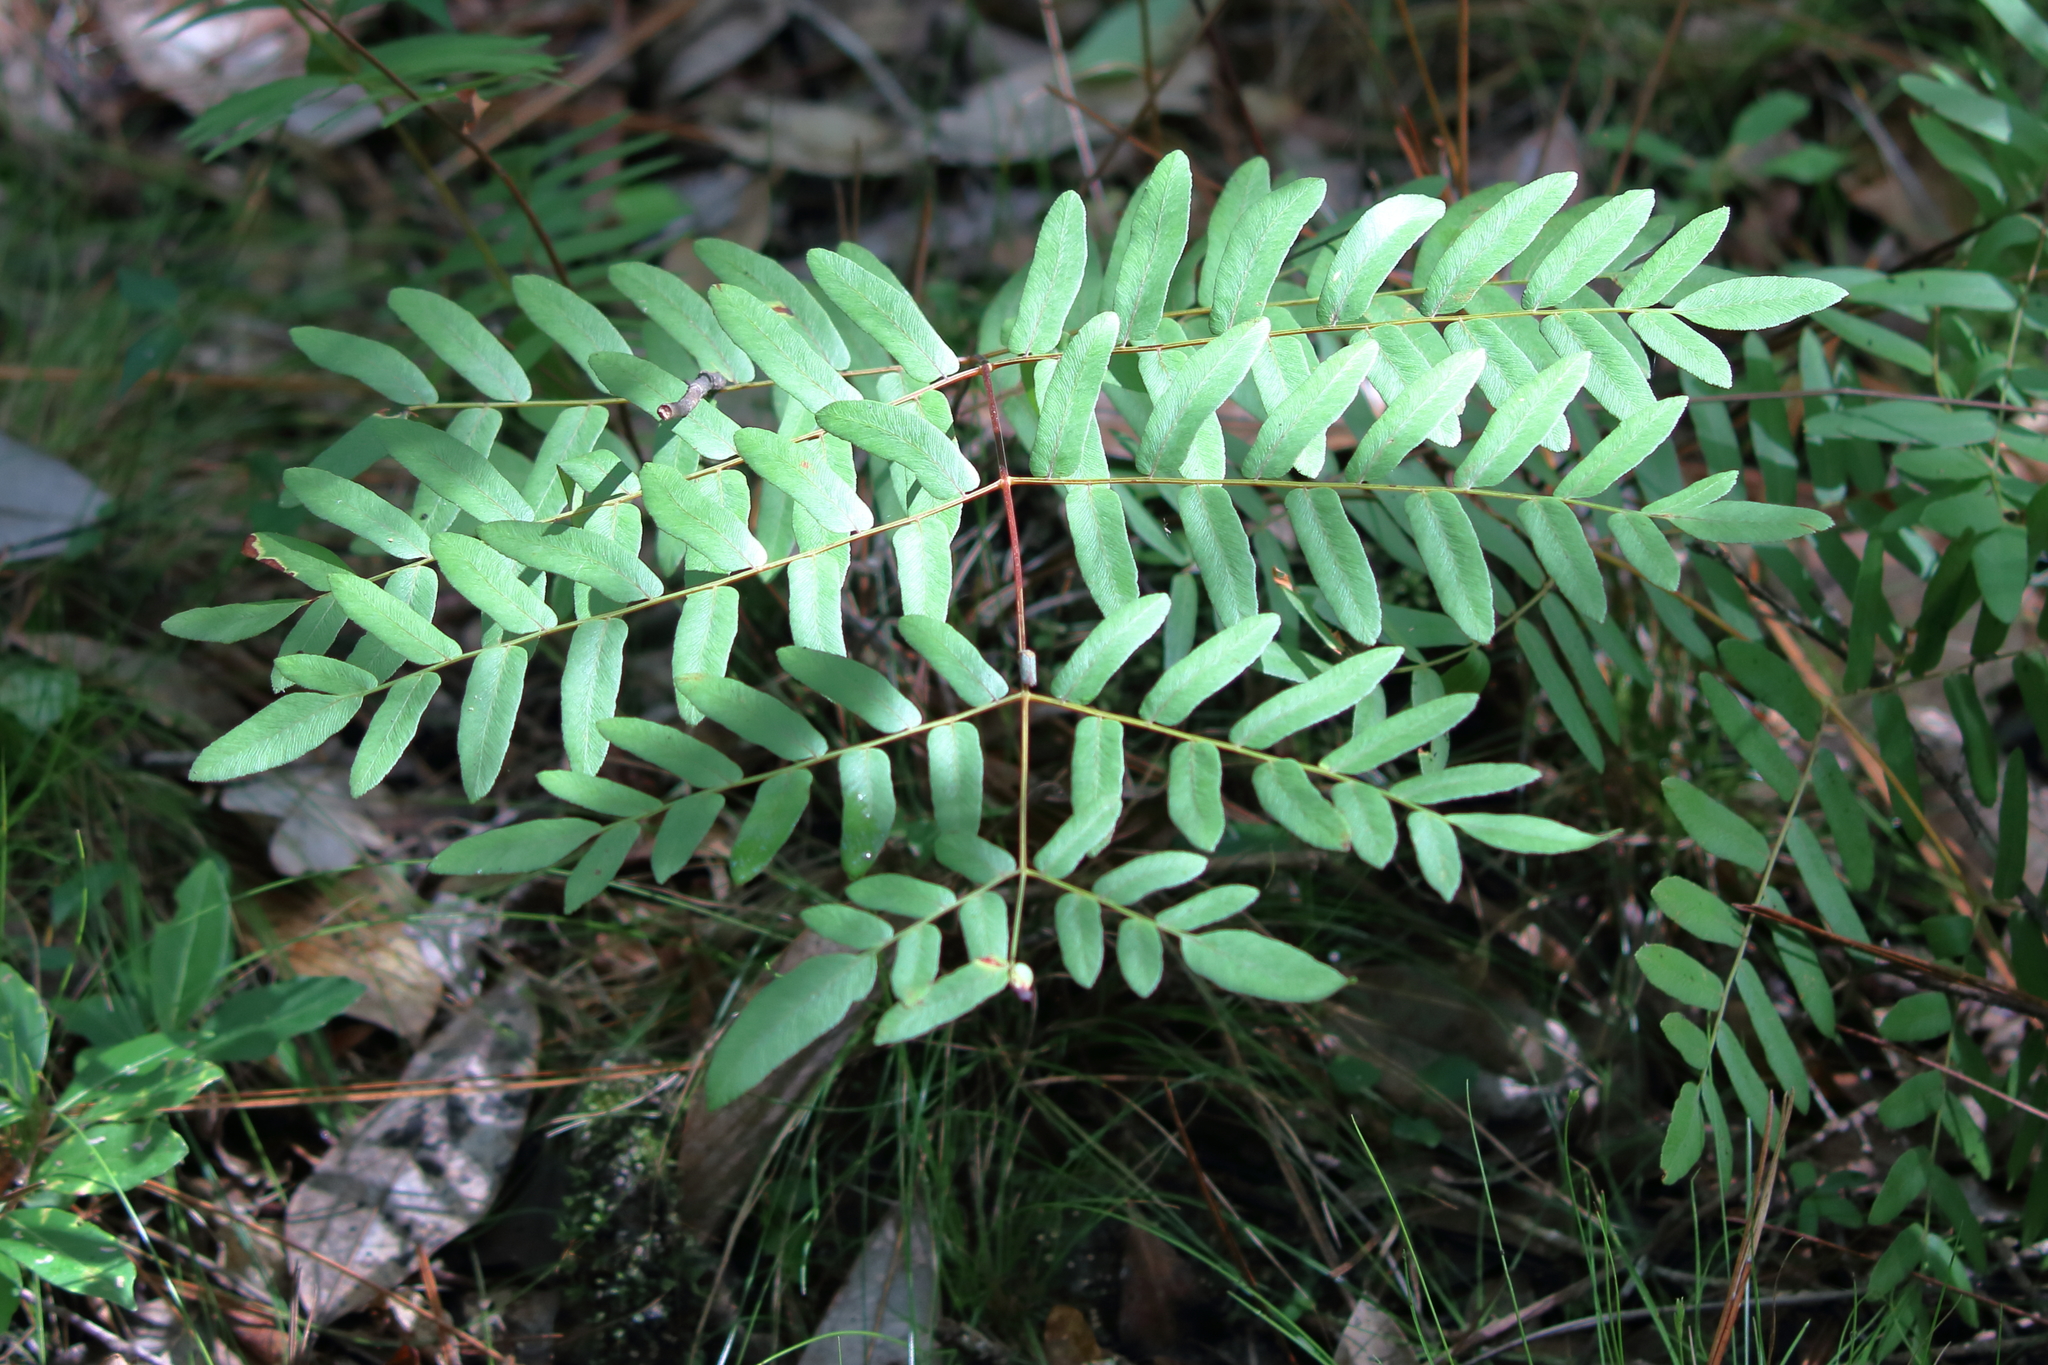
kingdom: Plantae
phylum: Tracheophyta
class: Polypodiopsida
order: Osmundales
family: Osmundaceae
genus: Osmunda
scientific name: Osmunda spectabilis
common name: American royal fern
